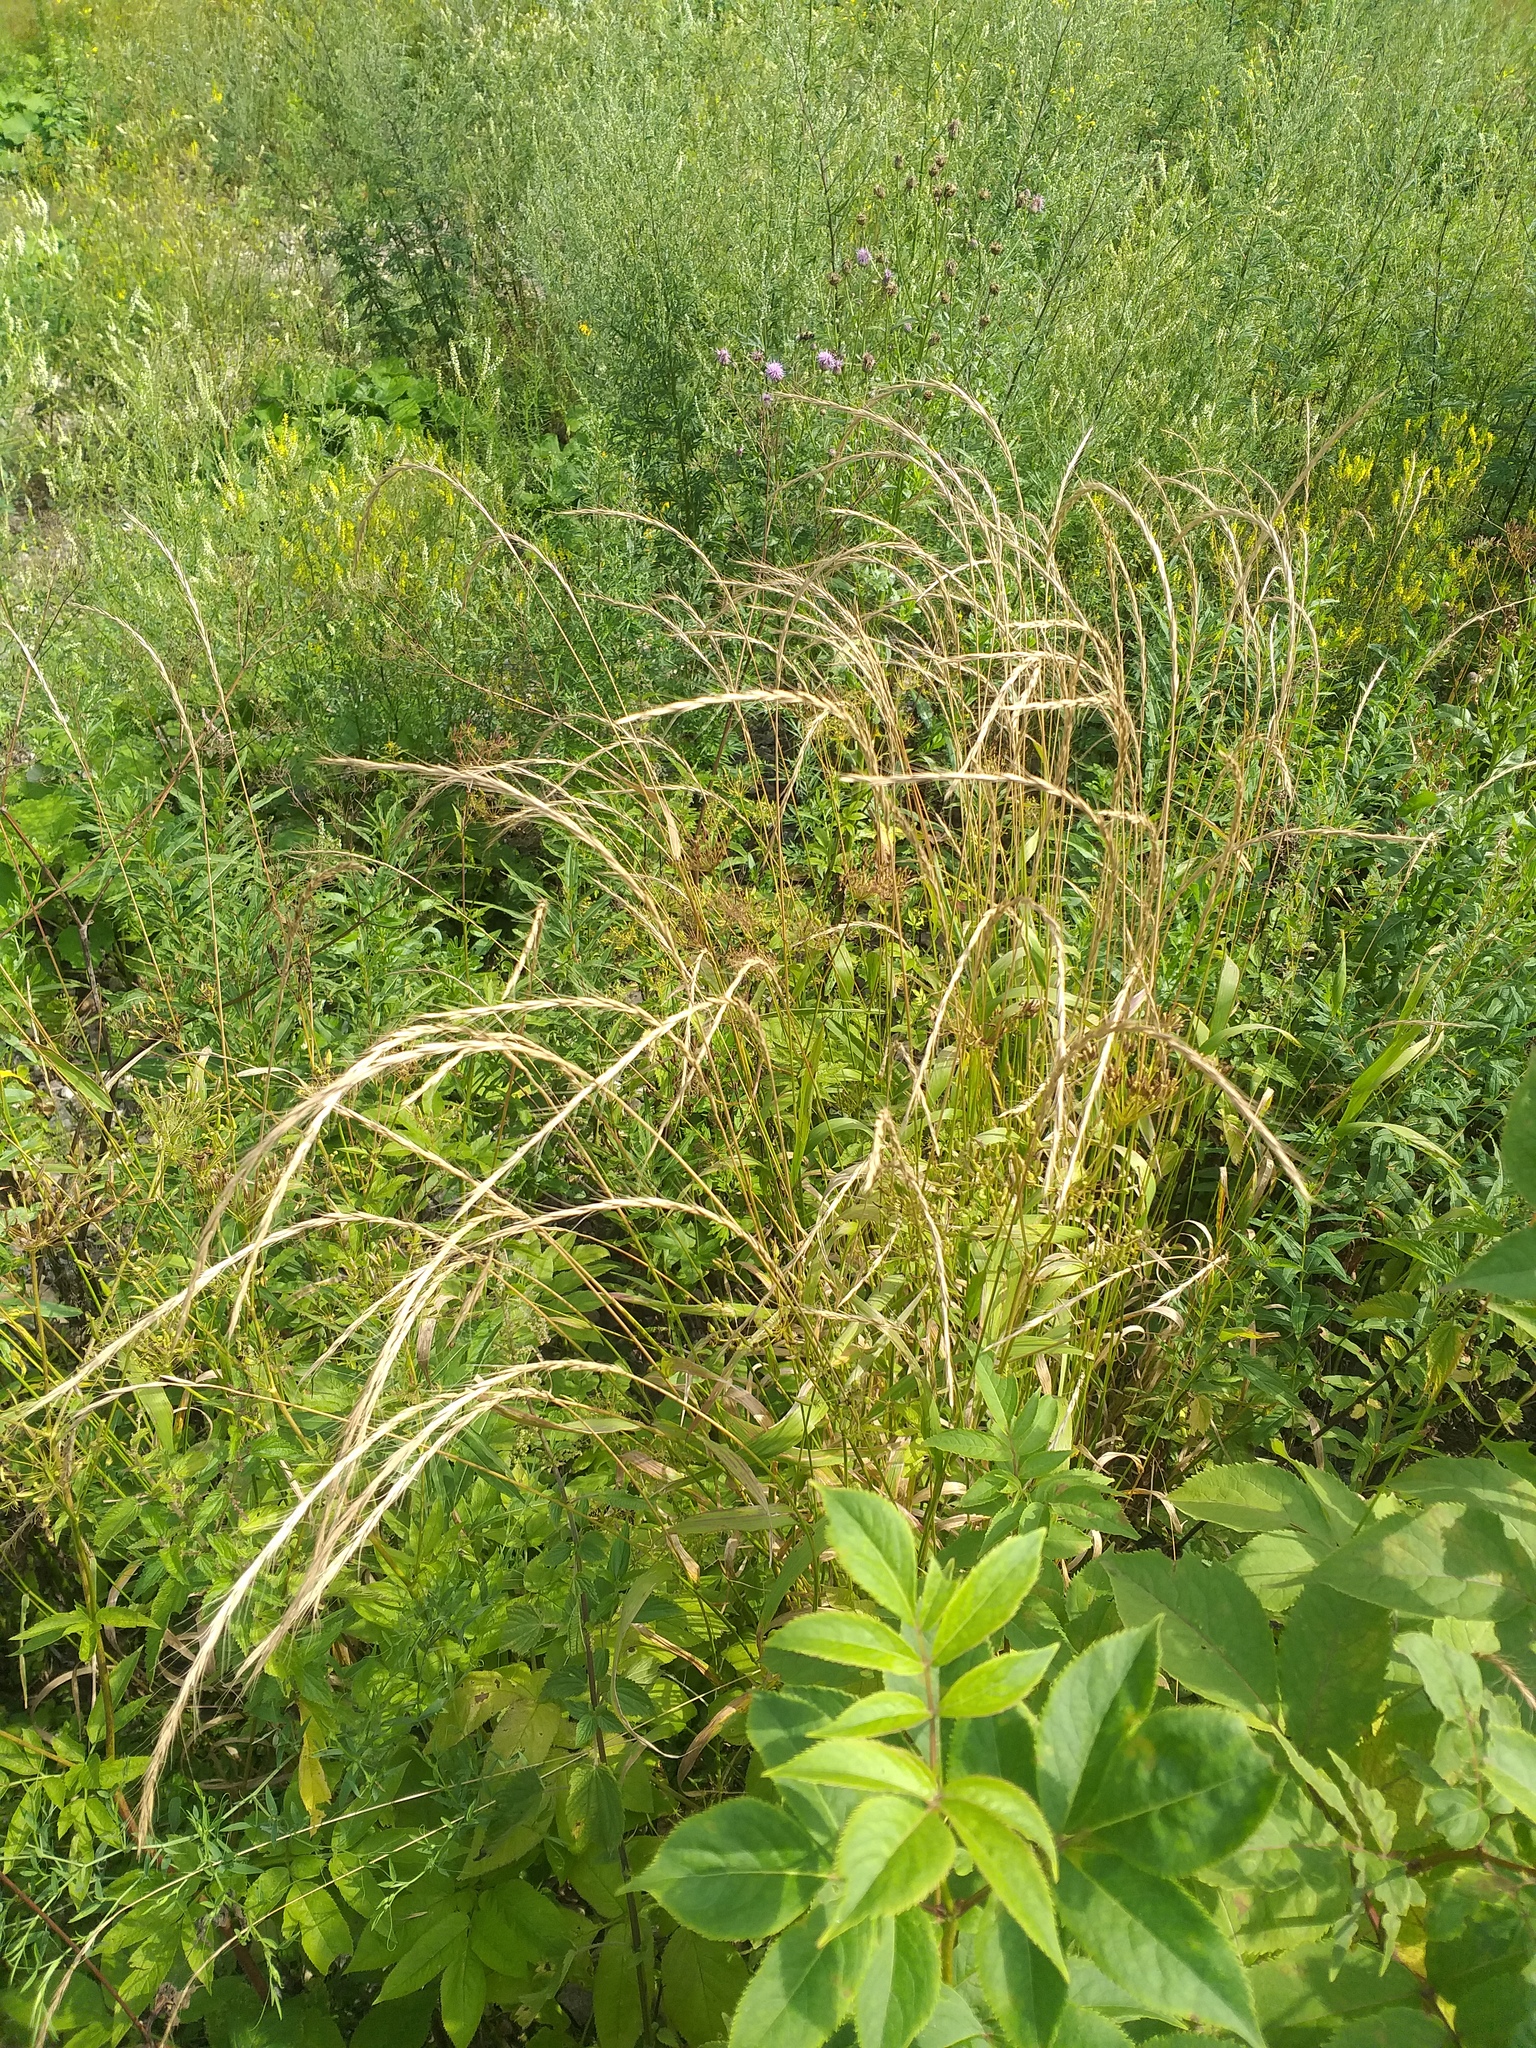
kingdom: Plantae
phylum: Tracheophyta
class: Liliopsida
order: Poales
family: Poaceae
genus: Elymus
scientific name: Elymus caninus
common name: Bearded couch
